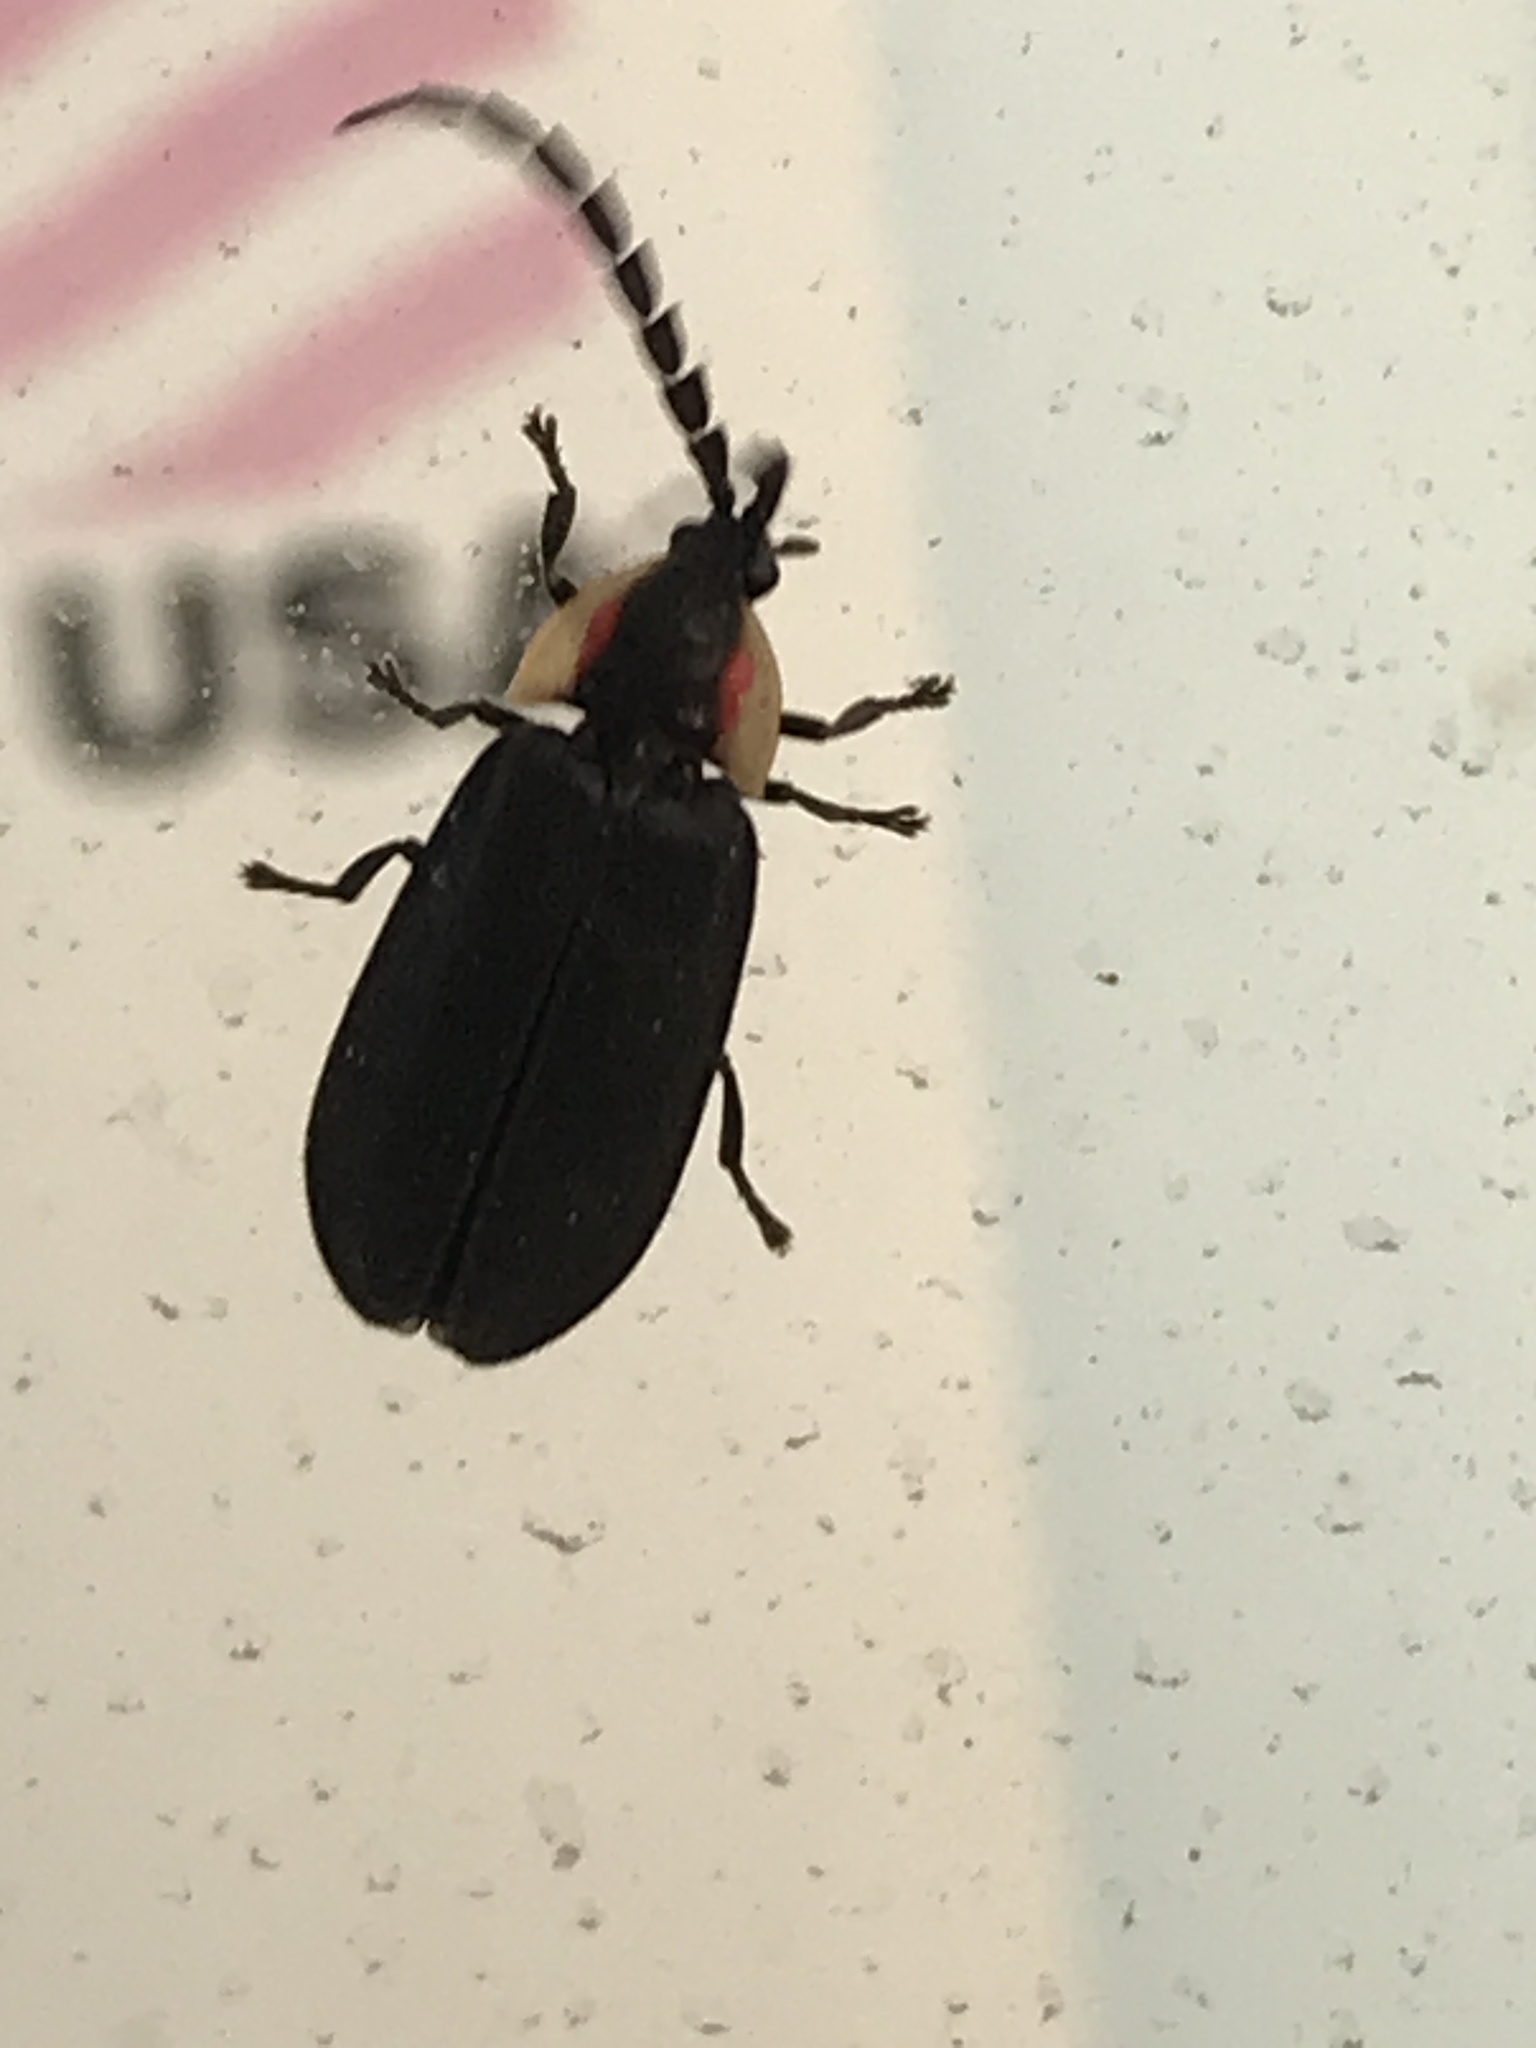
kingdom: Animalia
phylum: Arthropoda
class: Insecta
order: Coleoptera
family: Lampyridae
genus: Lucidota
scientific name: Lucidota atra
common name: Black firefly
